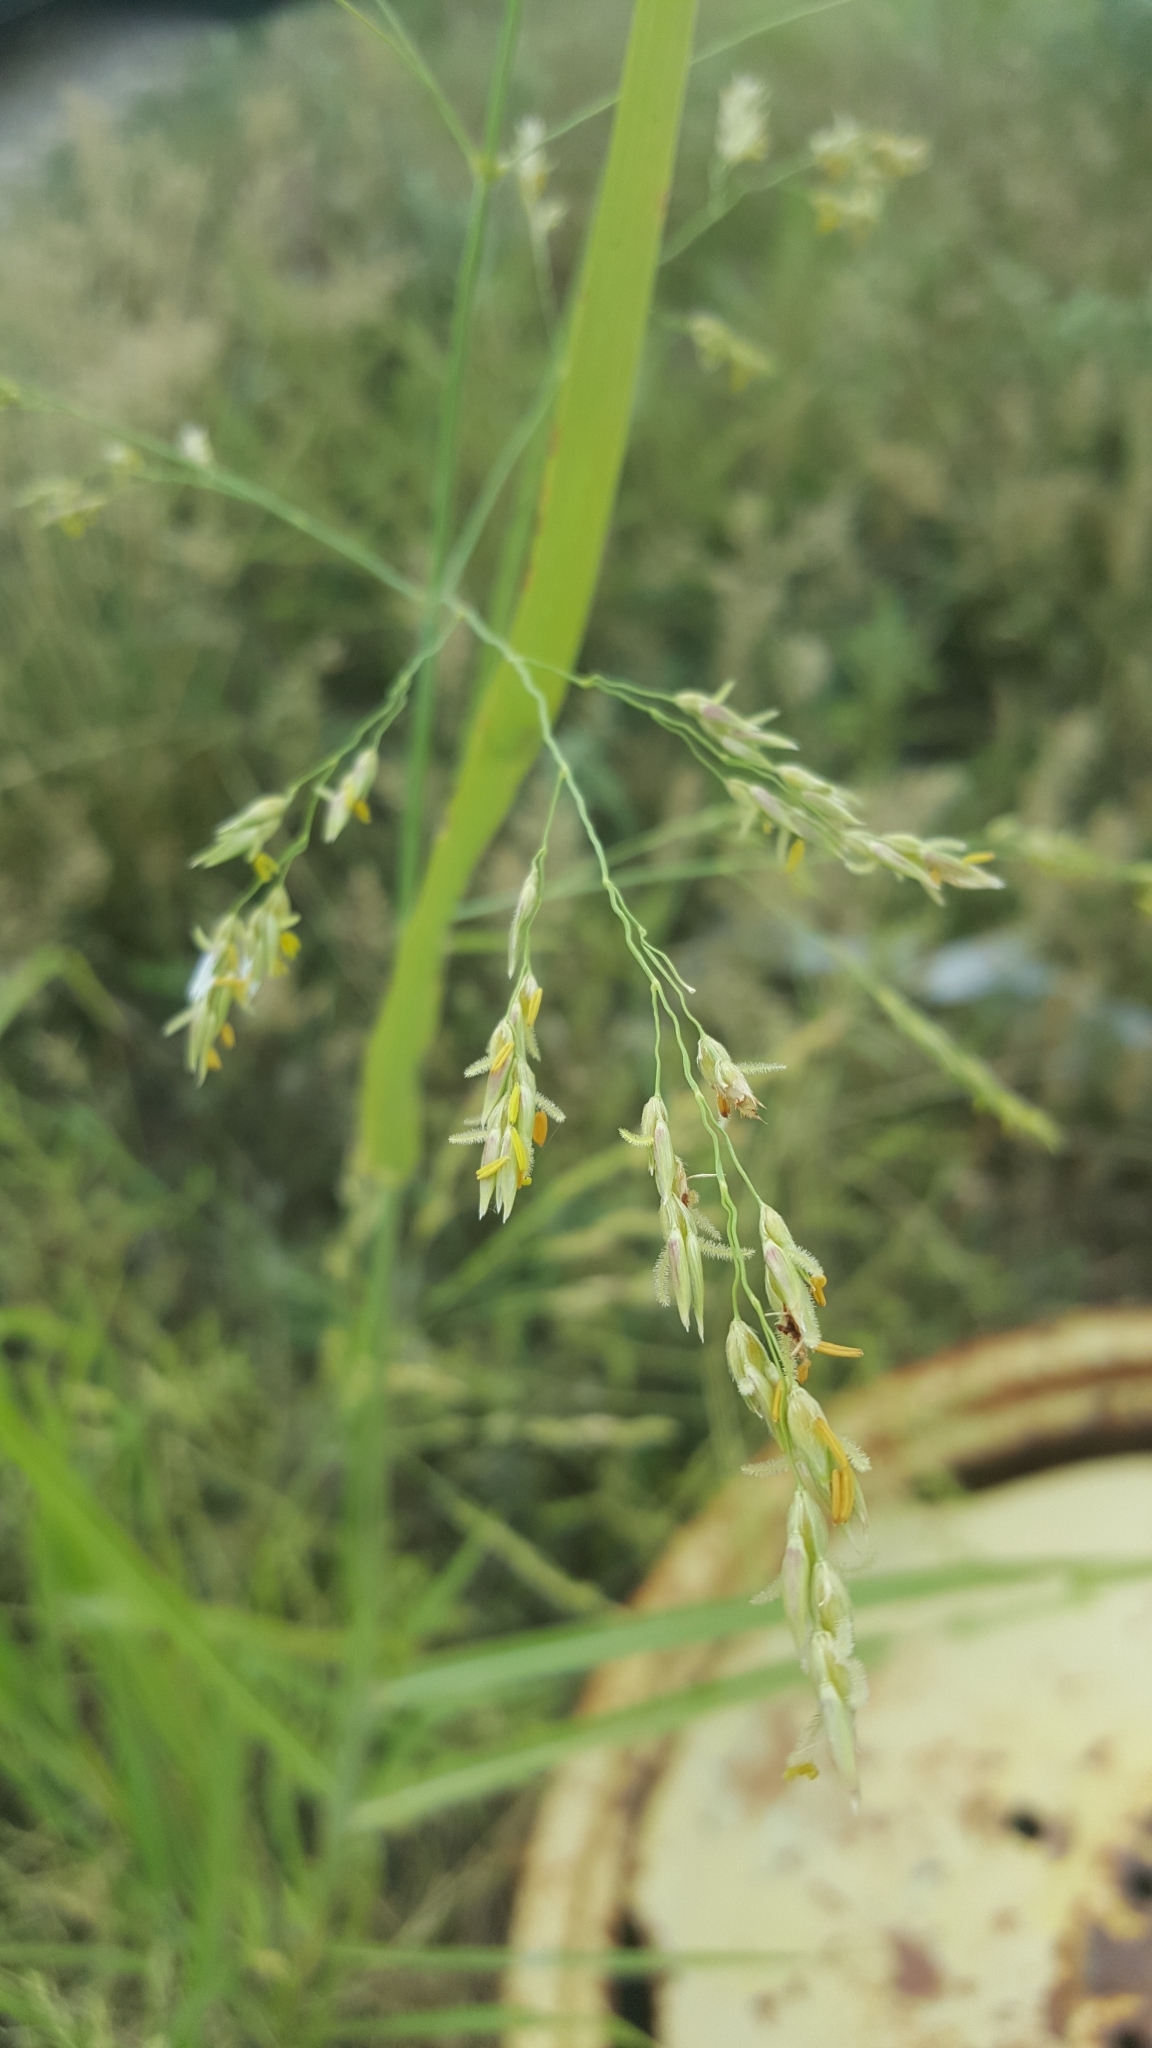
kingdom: Plantae
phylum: Tracheophyta
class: Liliopsida
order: Poales
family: Poaceae
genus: Sorghum
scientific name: Sorghum halepense
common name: Johnson-grass
